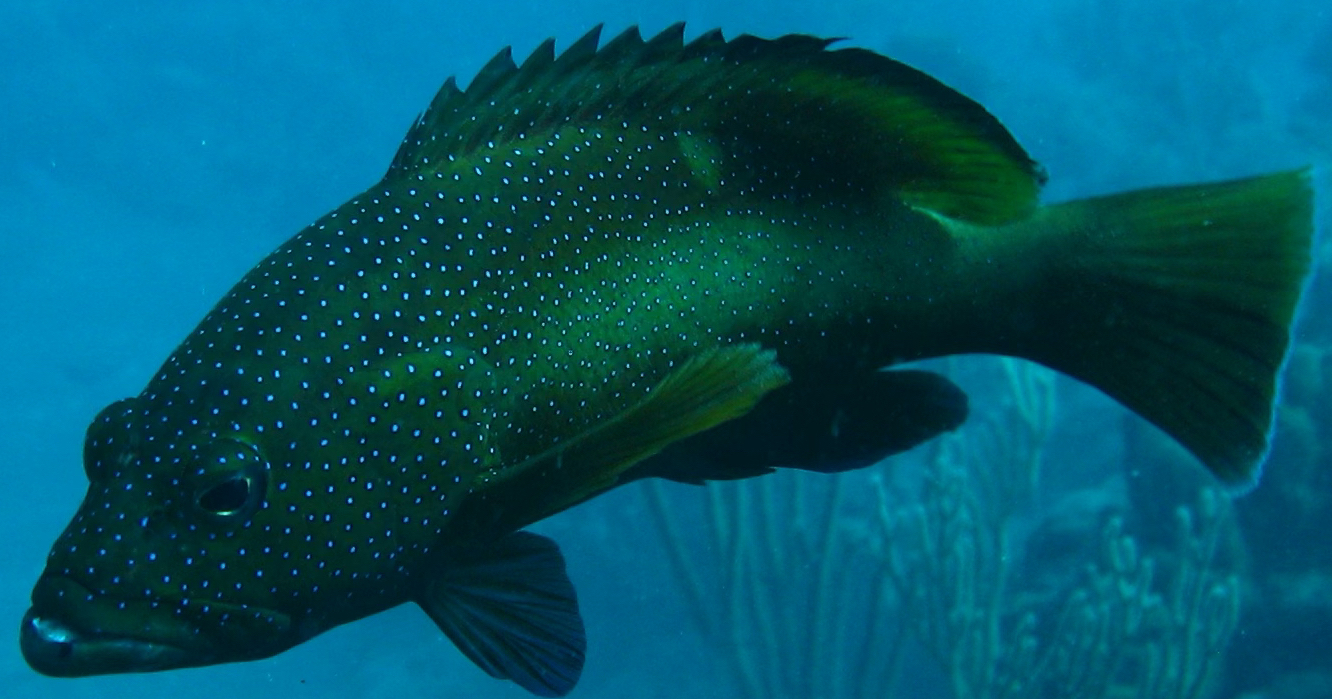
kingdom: Animalia
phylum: Chordata
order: Perciformes
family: Serranidae
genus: Cephalopholis
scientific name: Cephalopholis fulva
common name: Butterfish
